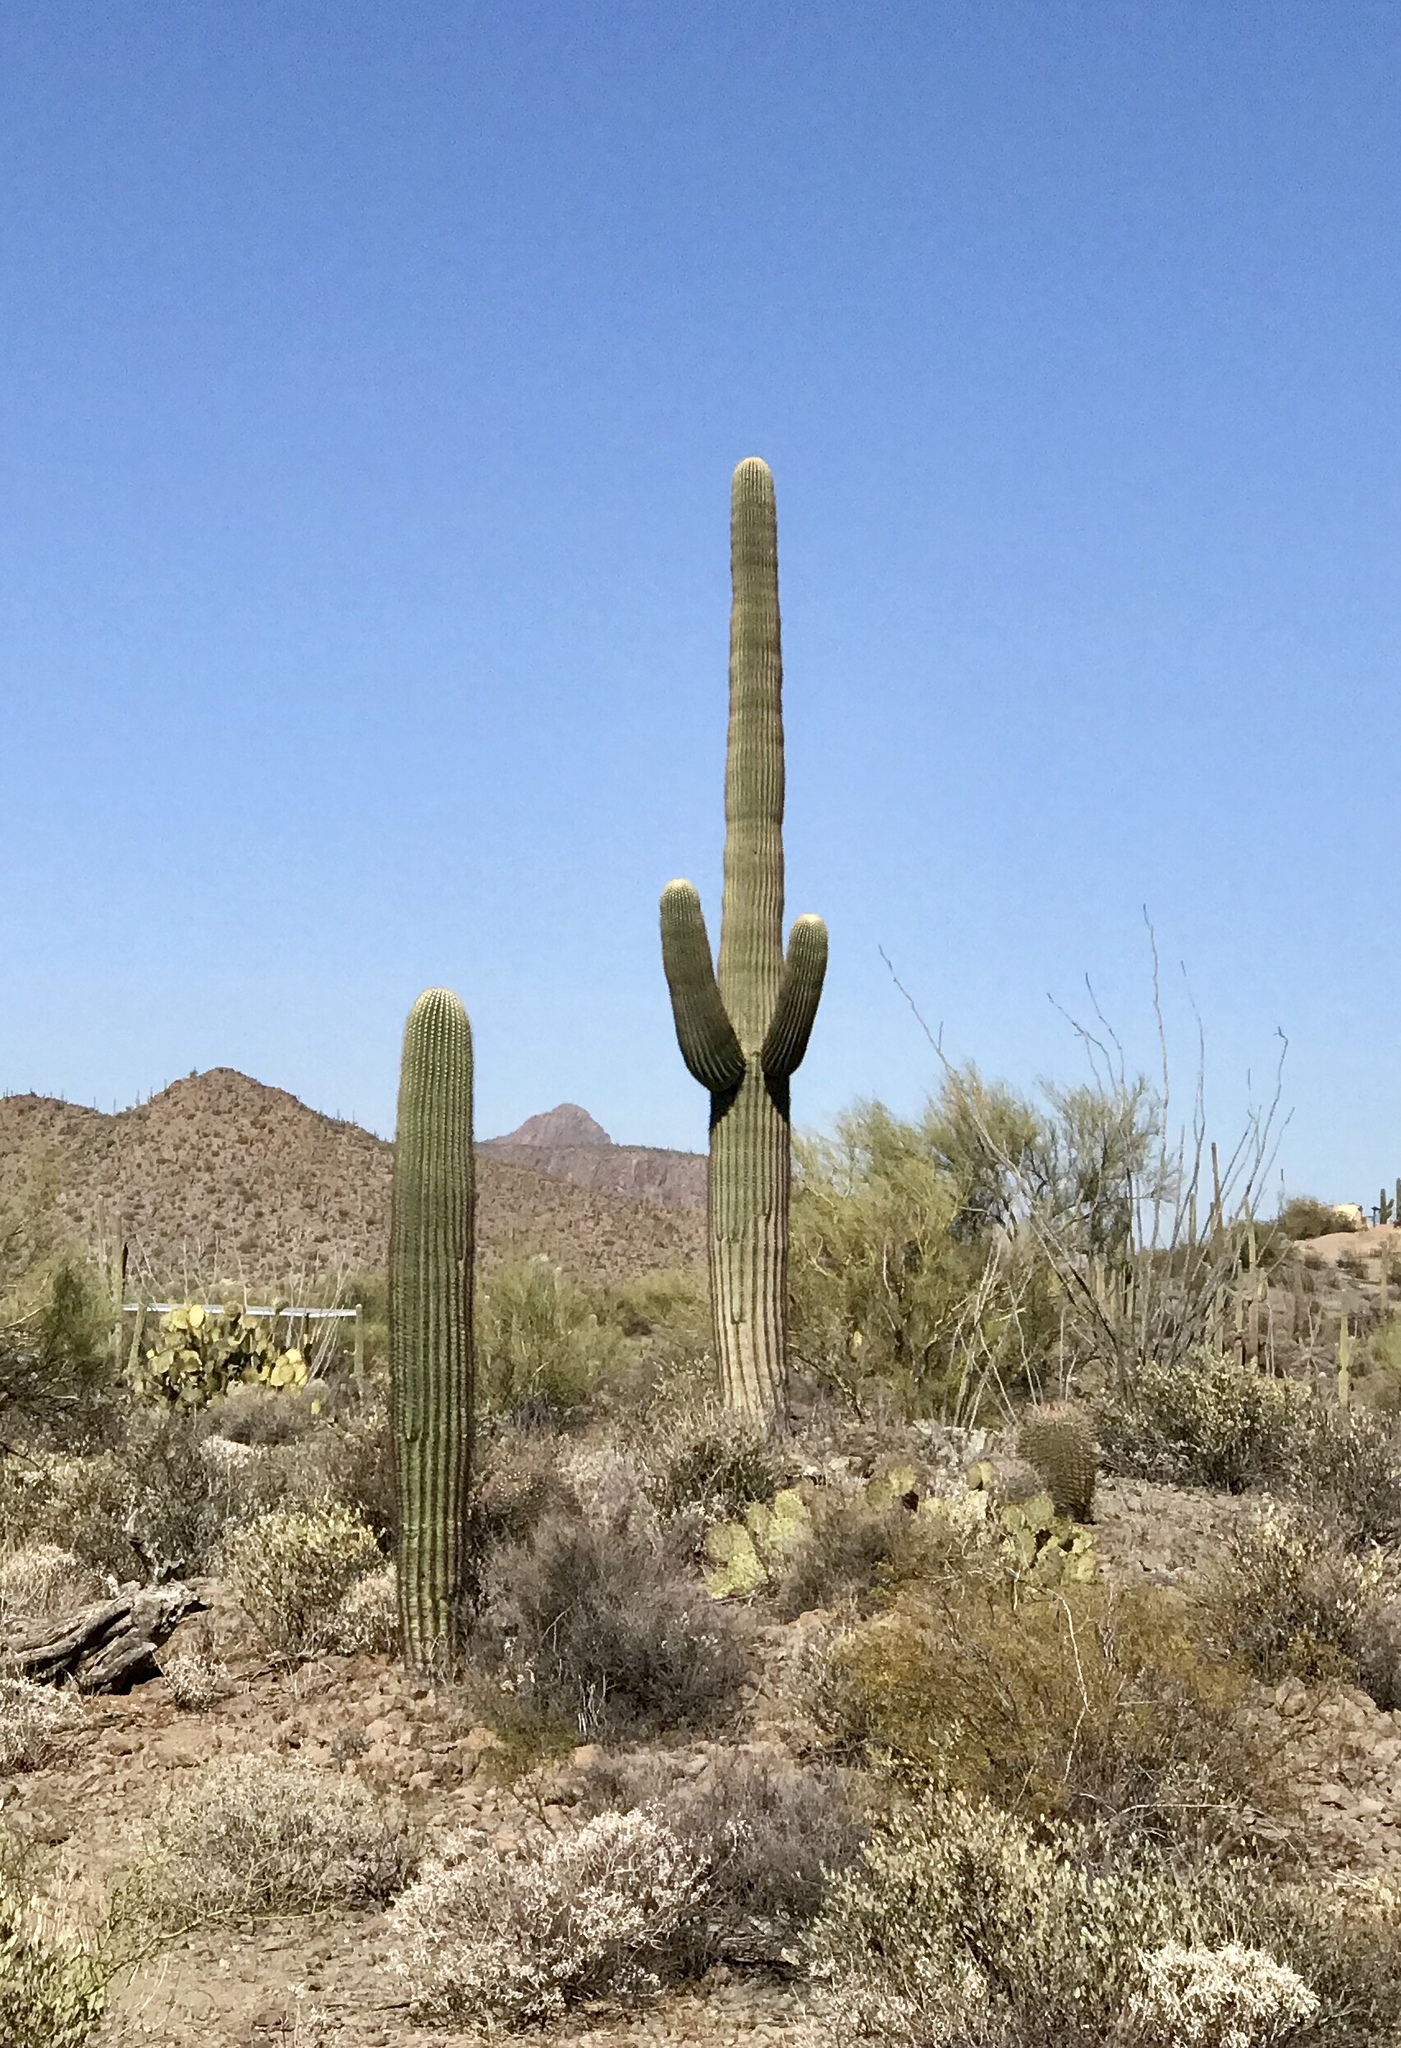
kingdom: Plantae
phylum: Tracheophyta
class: Magnoliopsida
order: Caryophyllales
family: Cactaceae
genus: Carnegiea
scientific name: Carnegiea gigantea
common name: Saguaro
